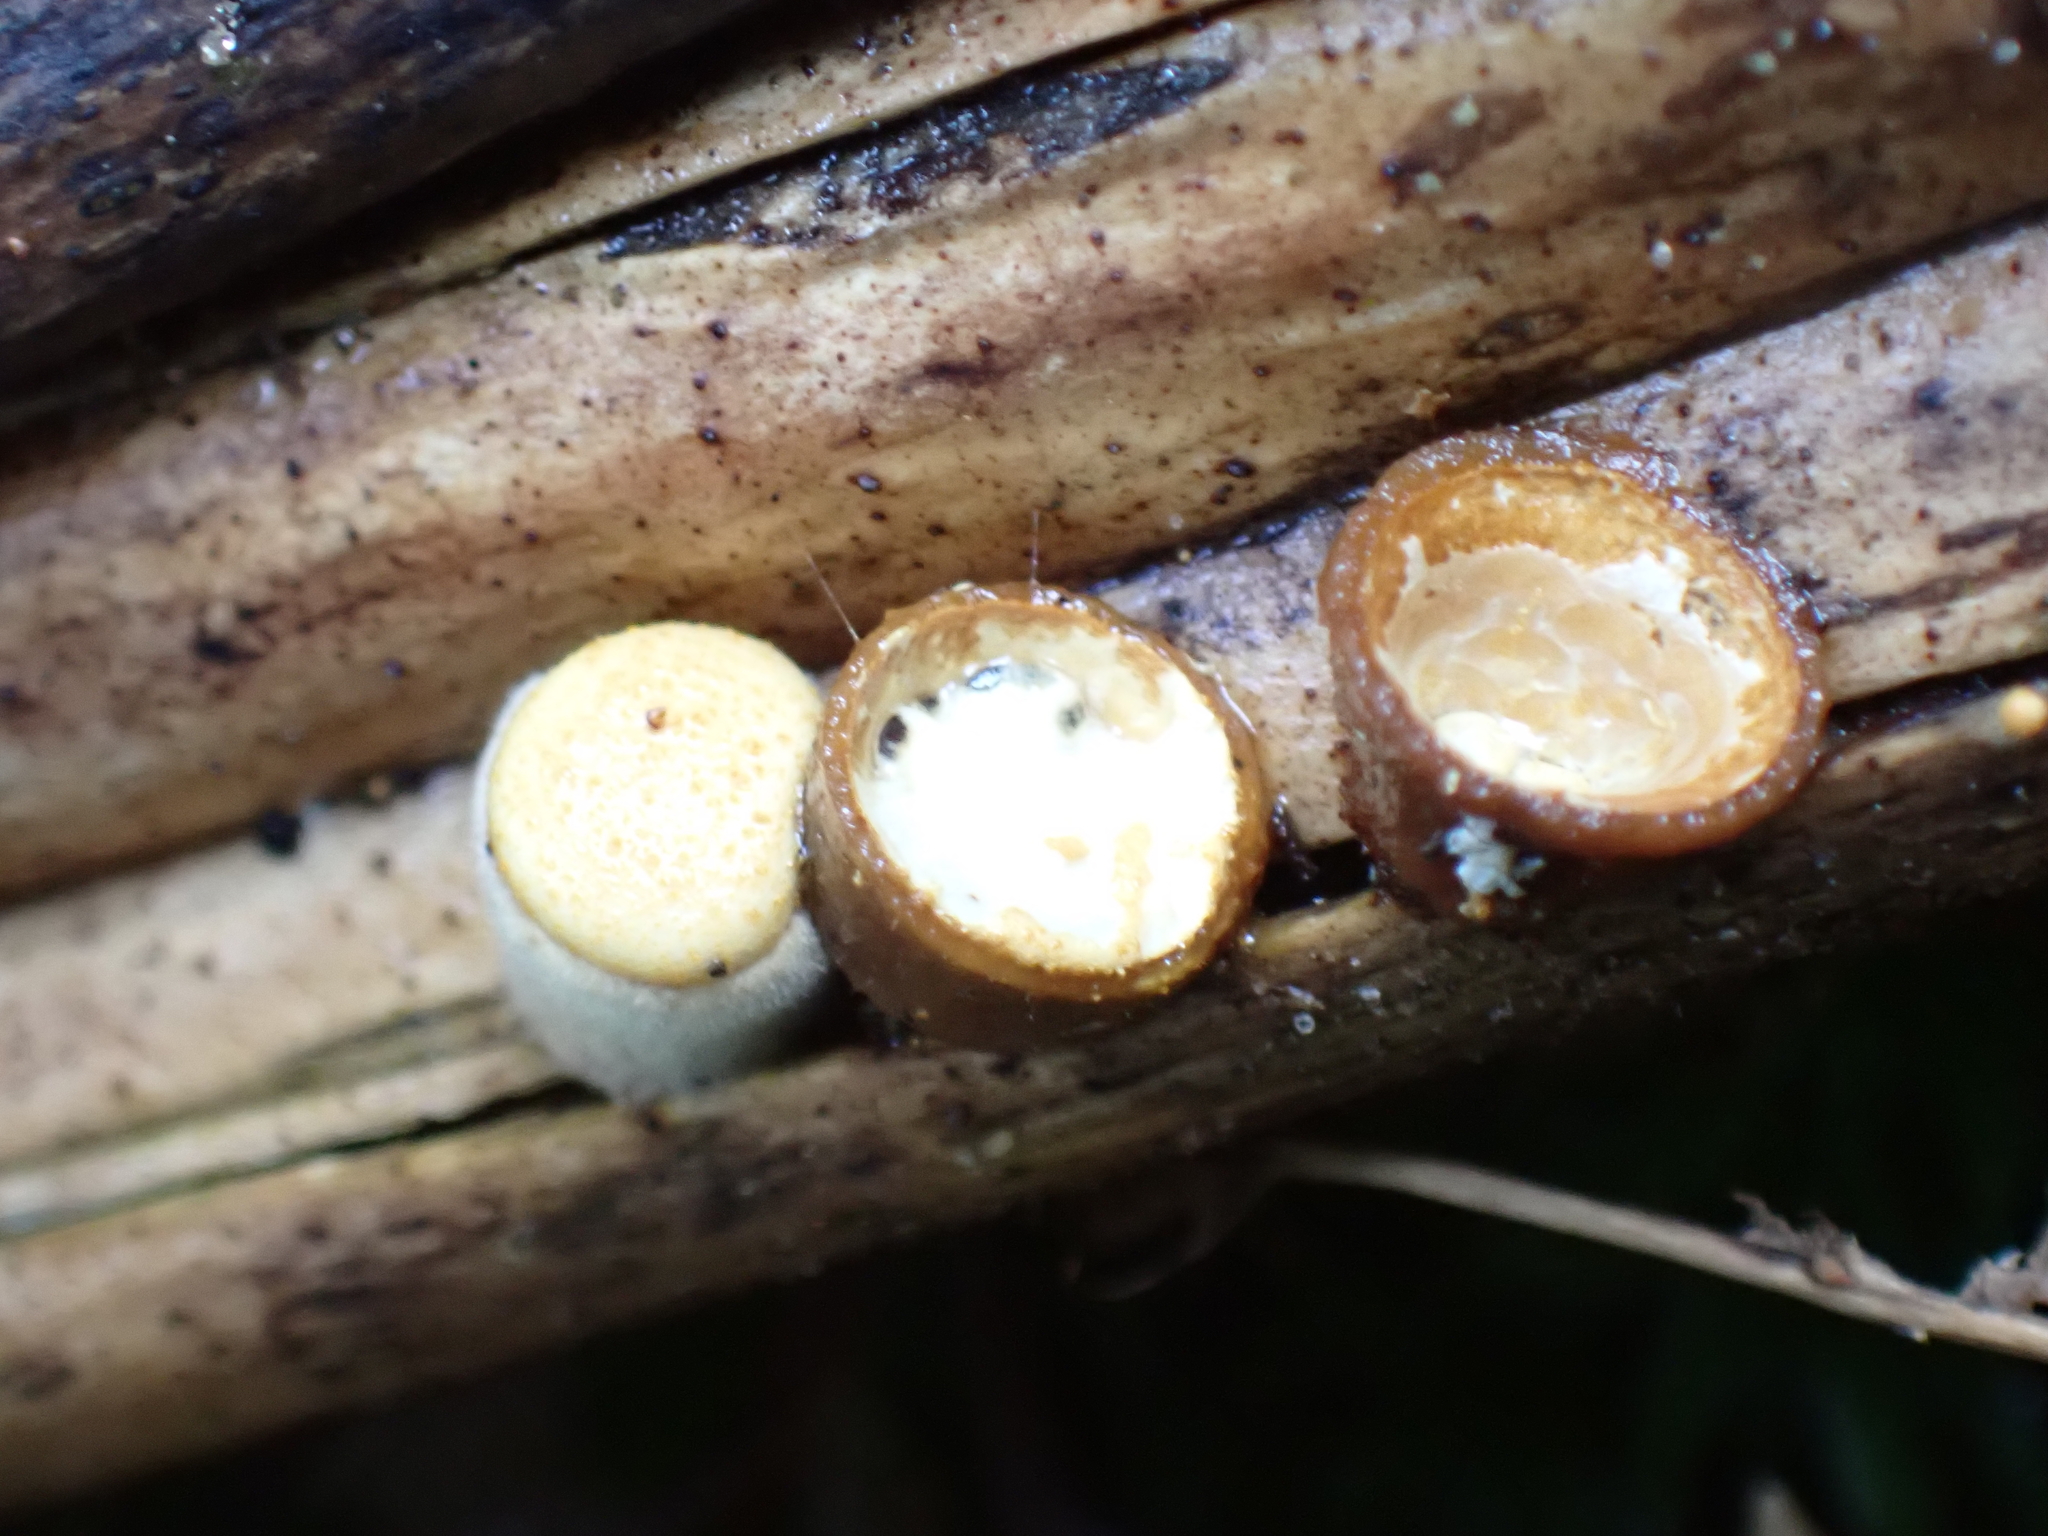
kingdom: Fungi
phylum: Basidiomycota
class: Agaricomycetes
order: Agaricales
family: Nidulariaceae
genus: Crucibulum
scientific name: Crucibulum simile
